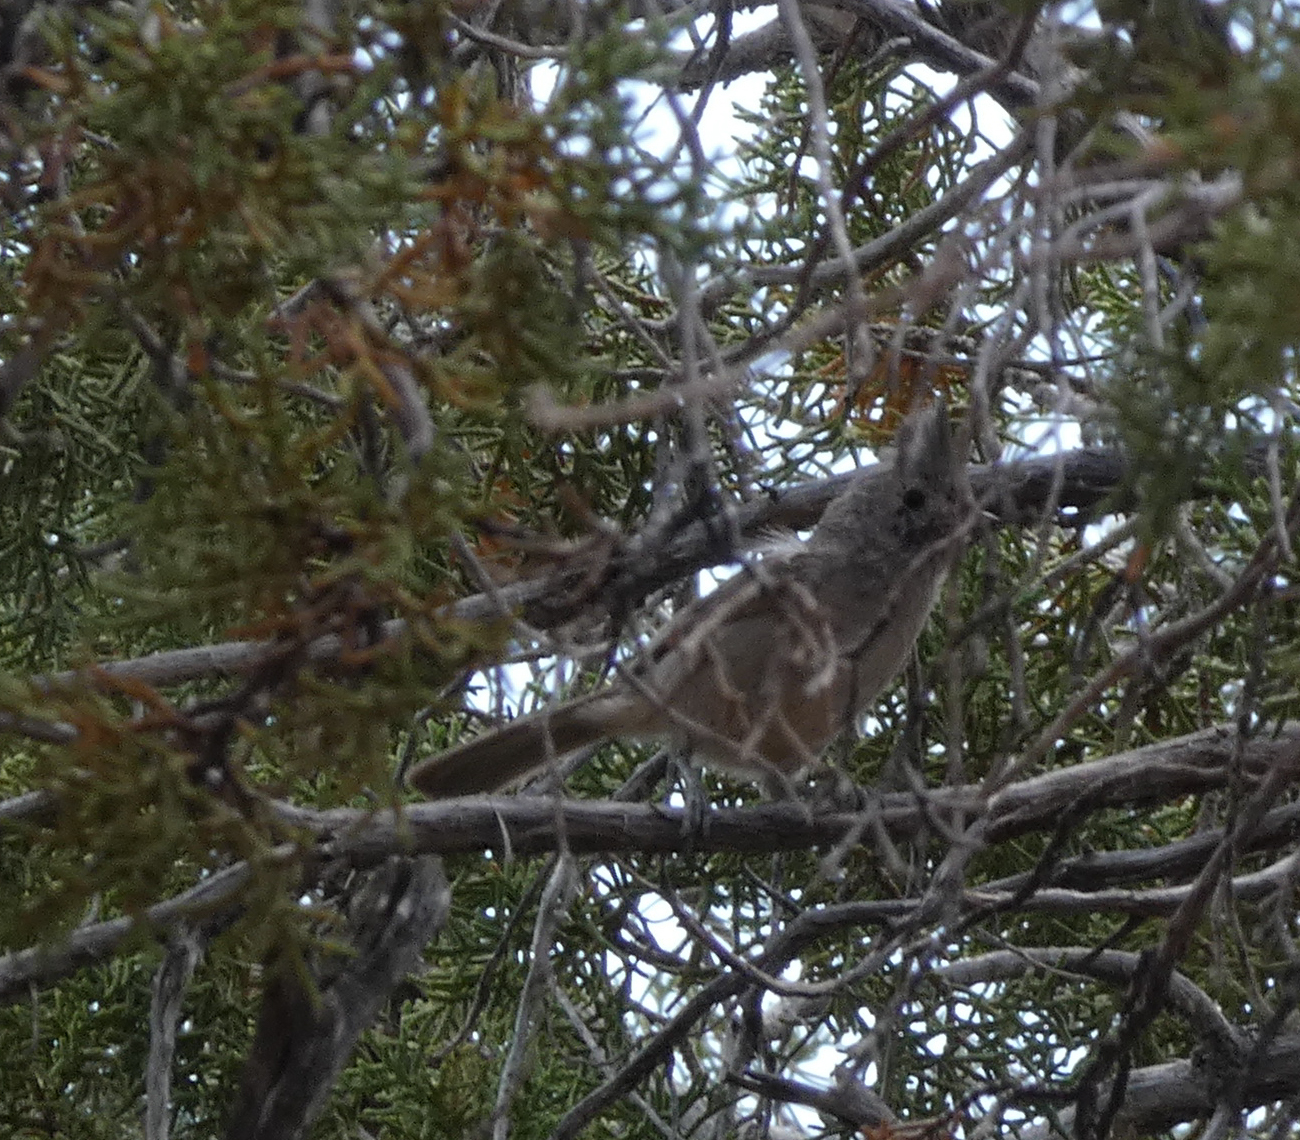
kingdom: Animalia
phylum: Chordata
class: Aves
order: Passeriformes
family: Paridae
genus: Baeolophus
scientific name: Baeolophus ridgwayi
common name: Juniper titmouse
